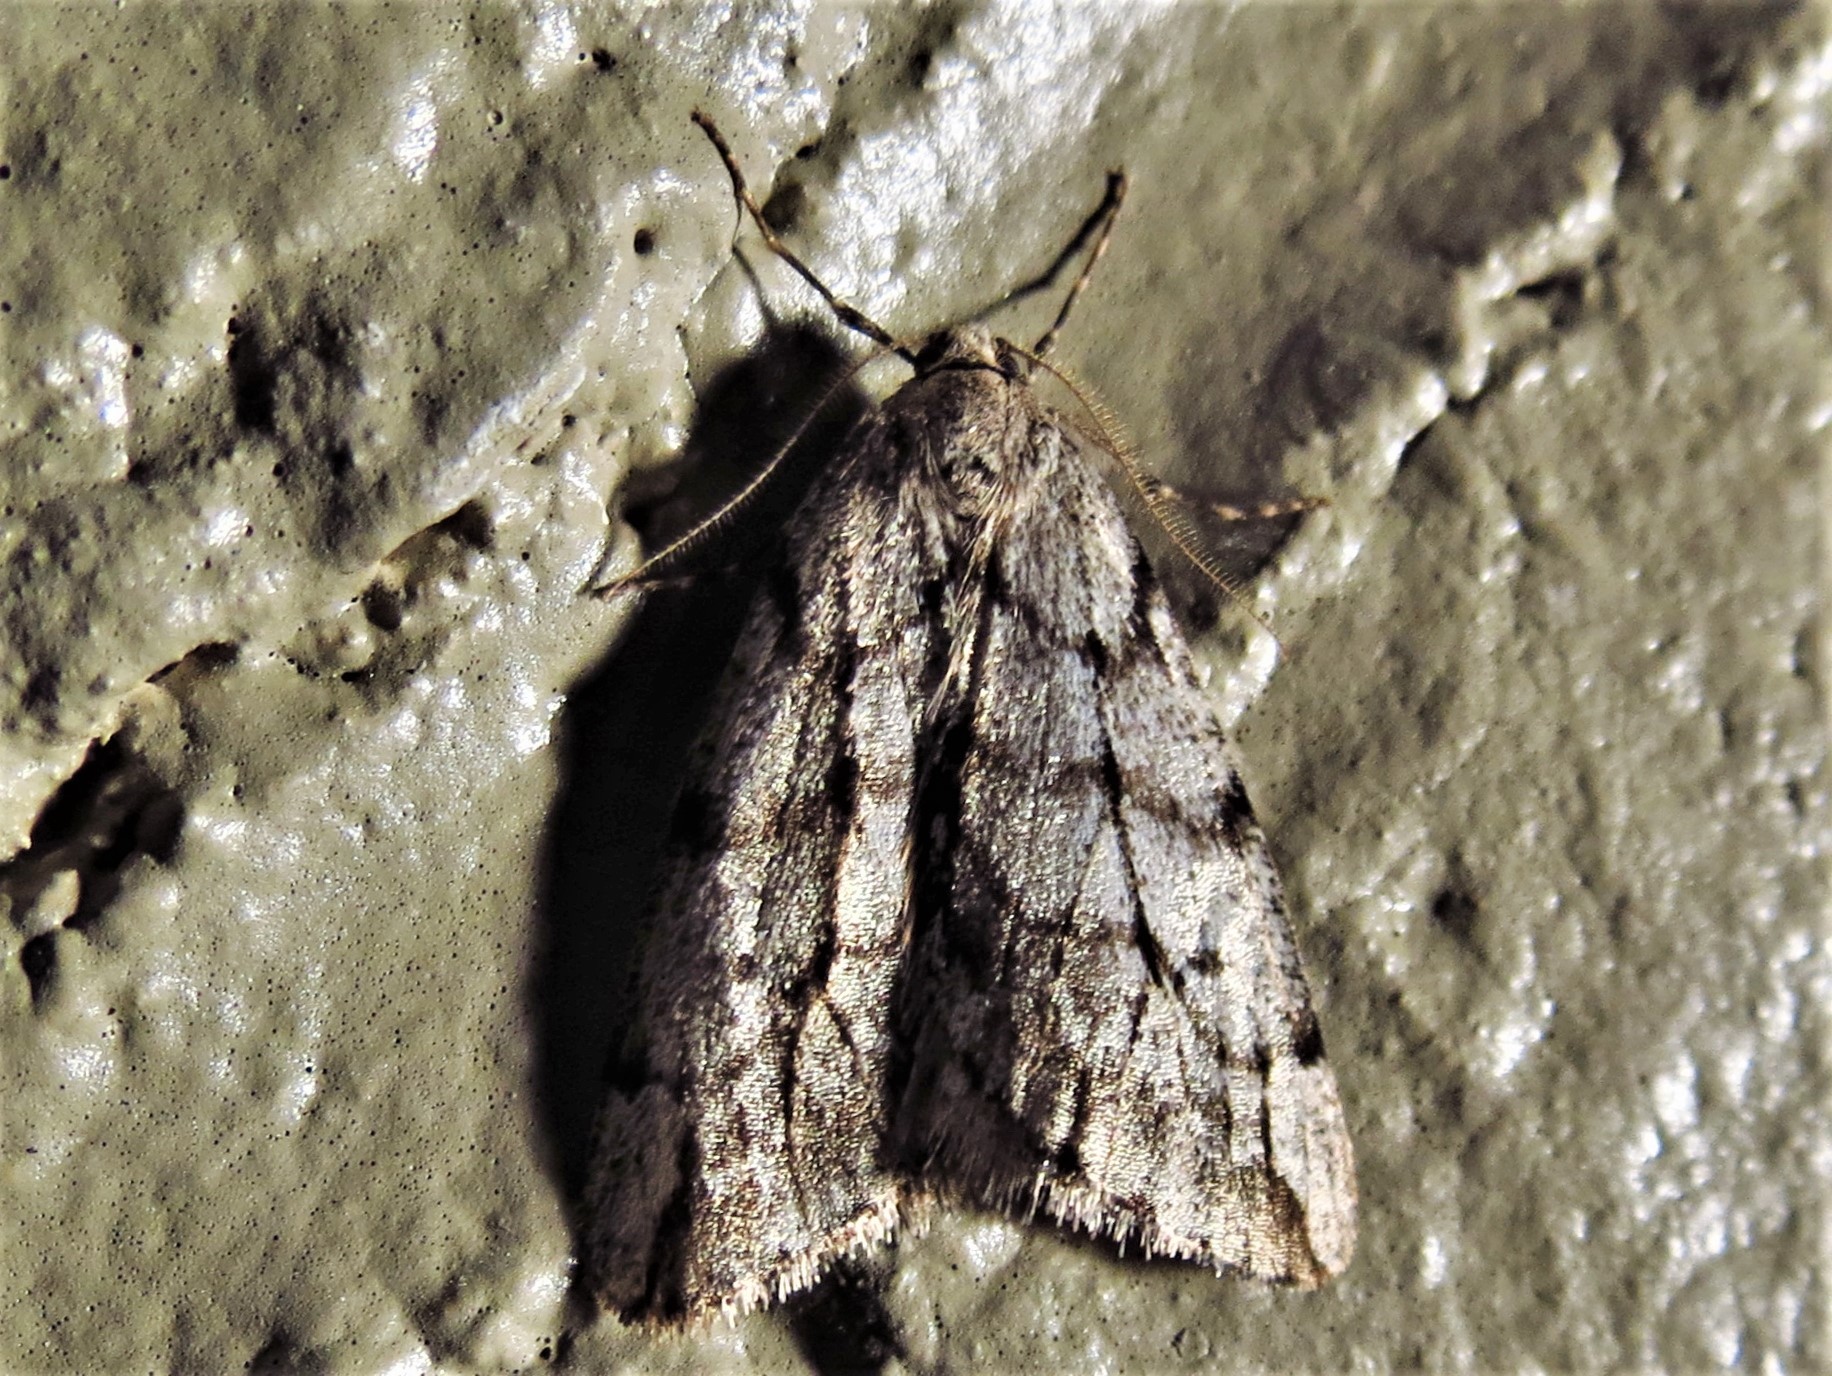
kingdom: Animalia
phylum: Arthropoda
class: Insecta
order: Lepidoptera
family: Geometridae
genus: Paleacrita
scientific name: Paleacrita vernata
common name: Spring cankerworm
